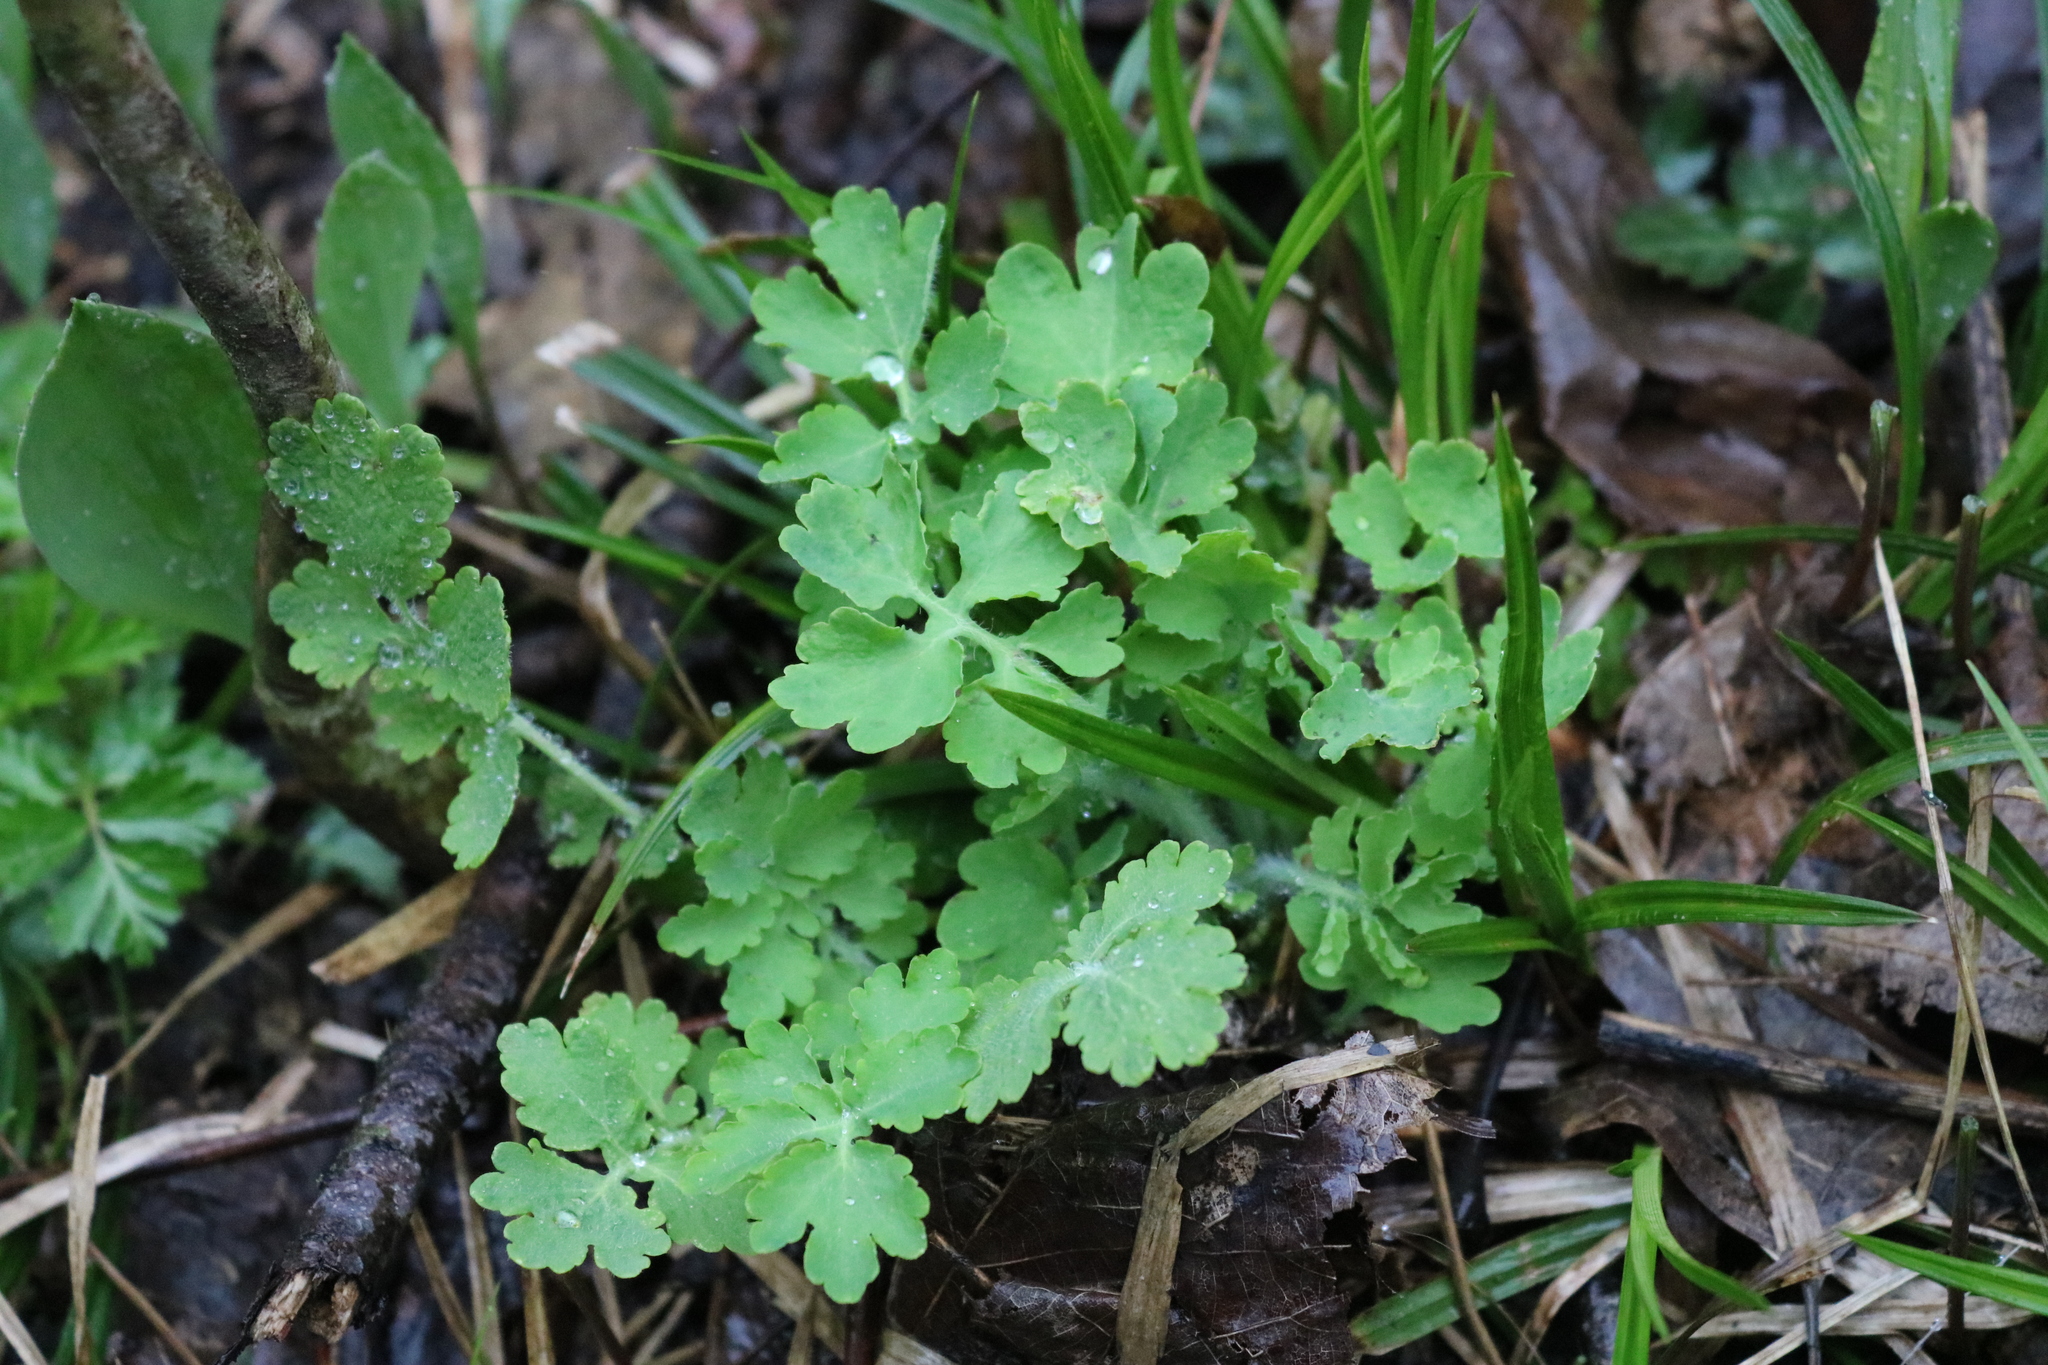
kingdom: Plantae
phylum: Tracheophyta
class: Magnoliopsida
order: Ranunculales
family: Papaveraceae
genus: Chelidonium
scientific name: Chelidonium majus
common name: Greater celandine
